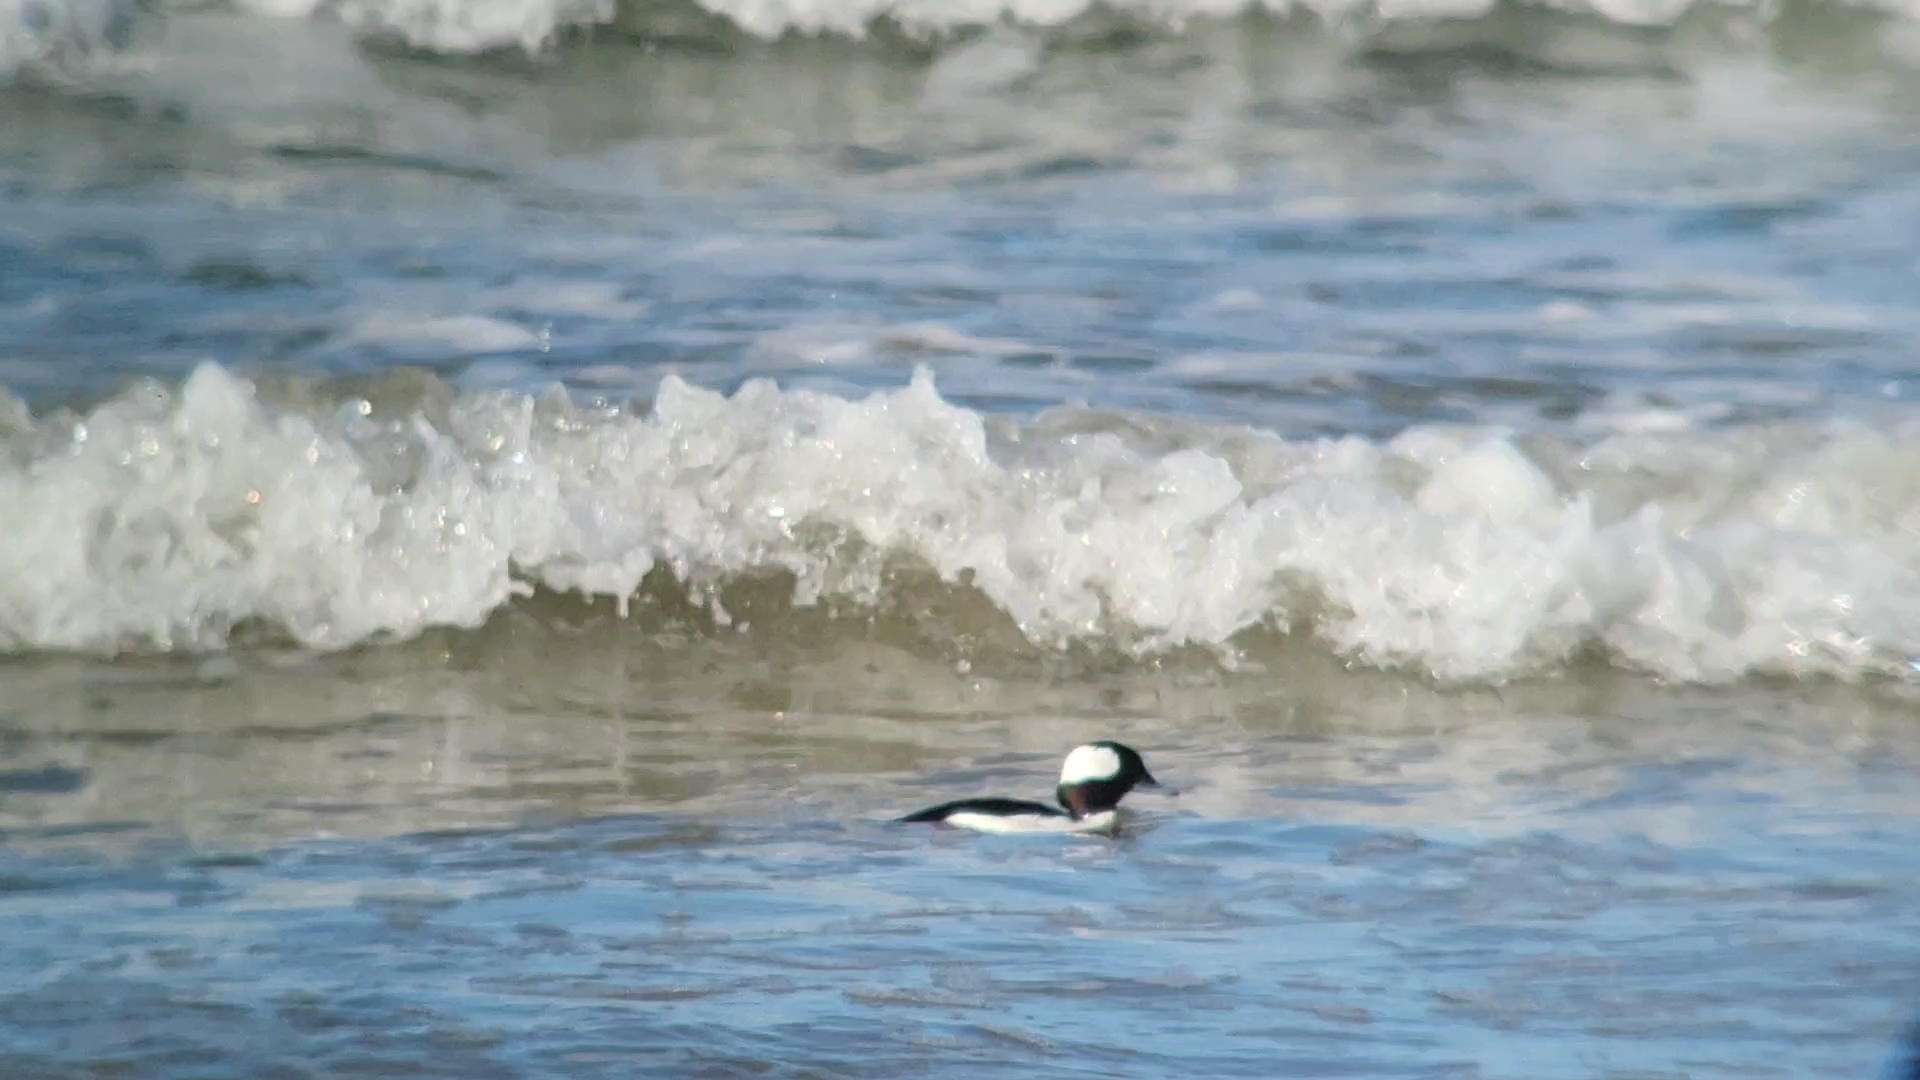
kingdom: Animalia
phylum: Chordata
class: Aves
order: Anseriformes
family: Anatidae
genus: Bucephala
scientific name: Bucephala albeola
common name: Bufflehead
